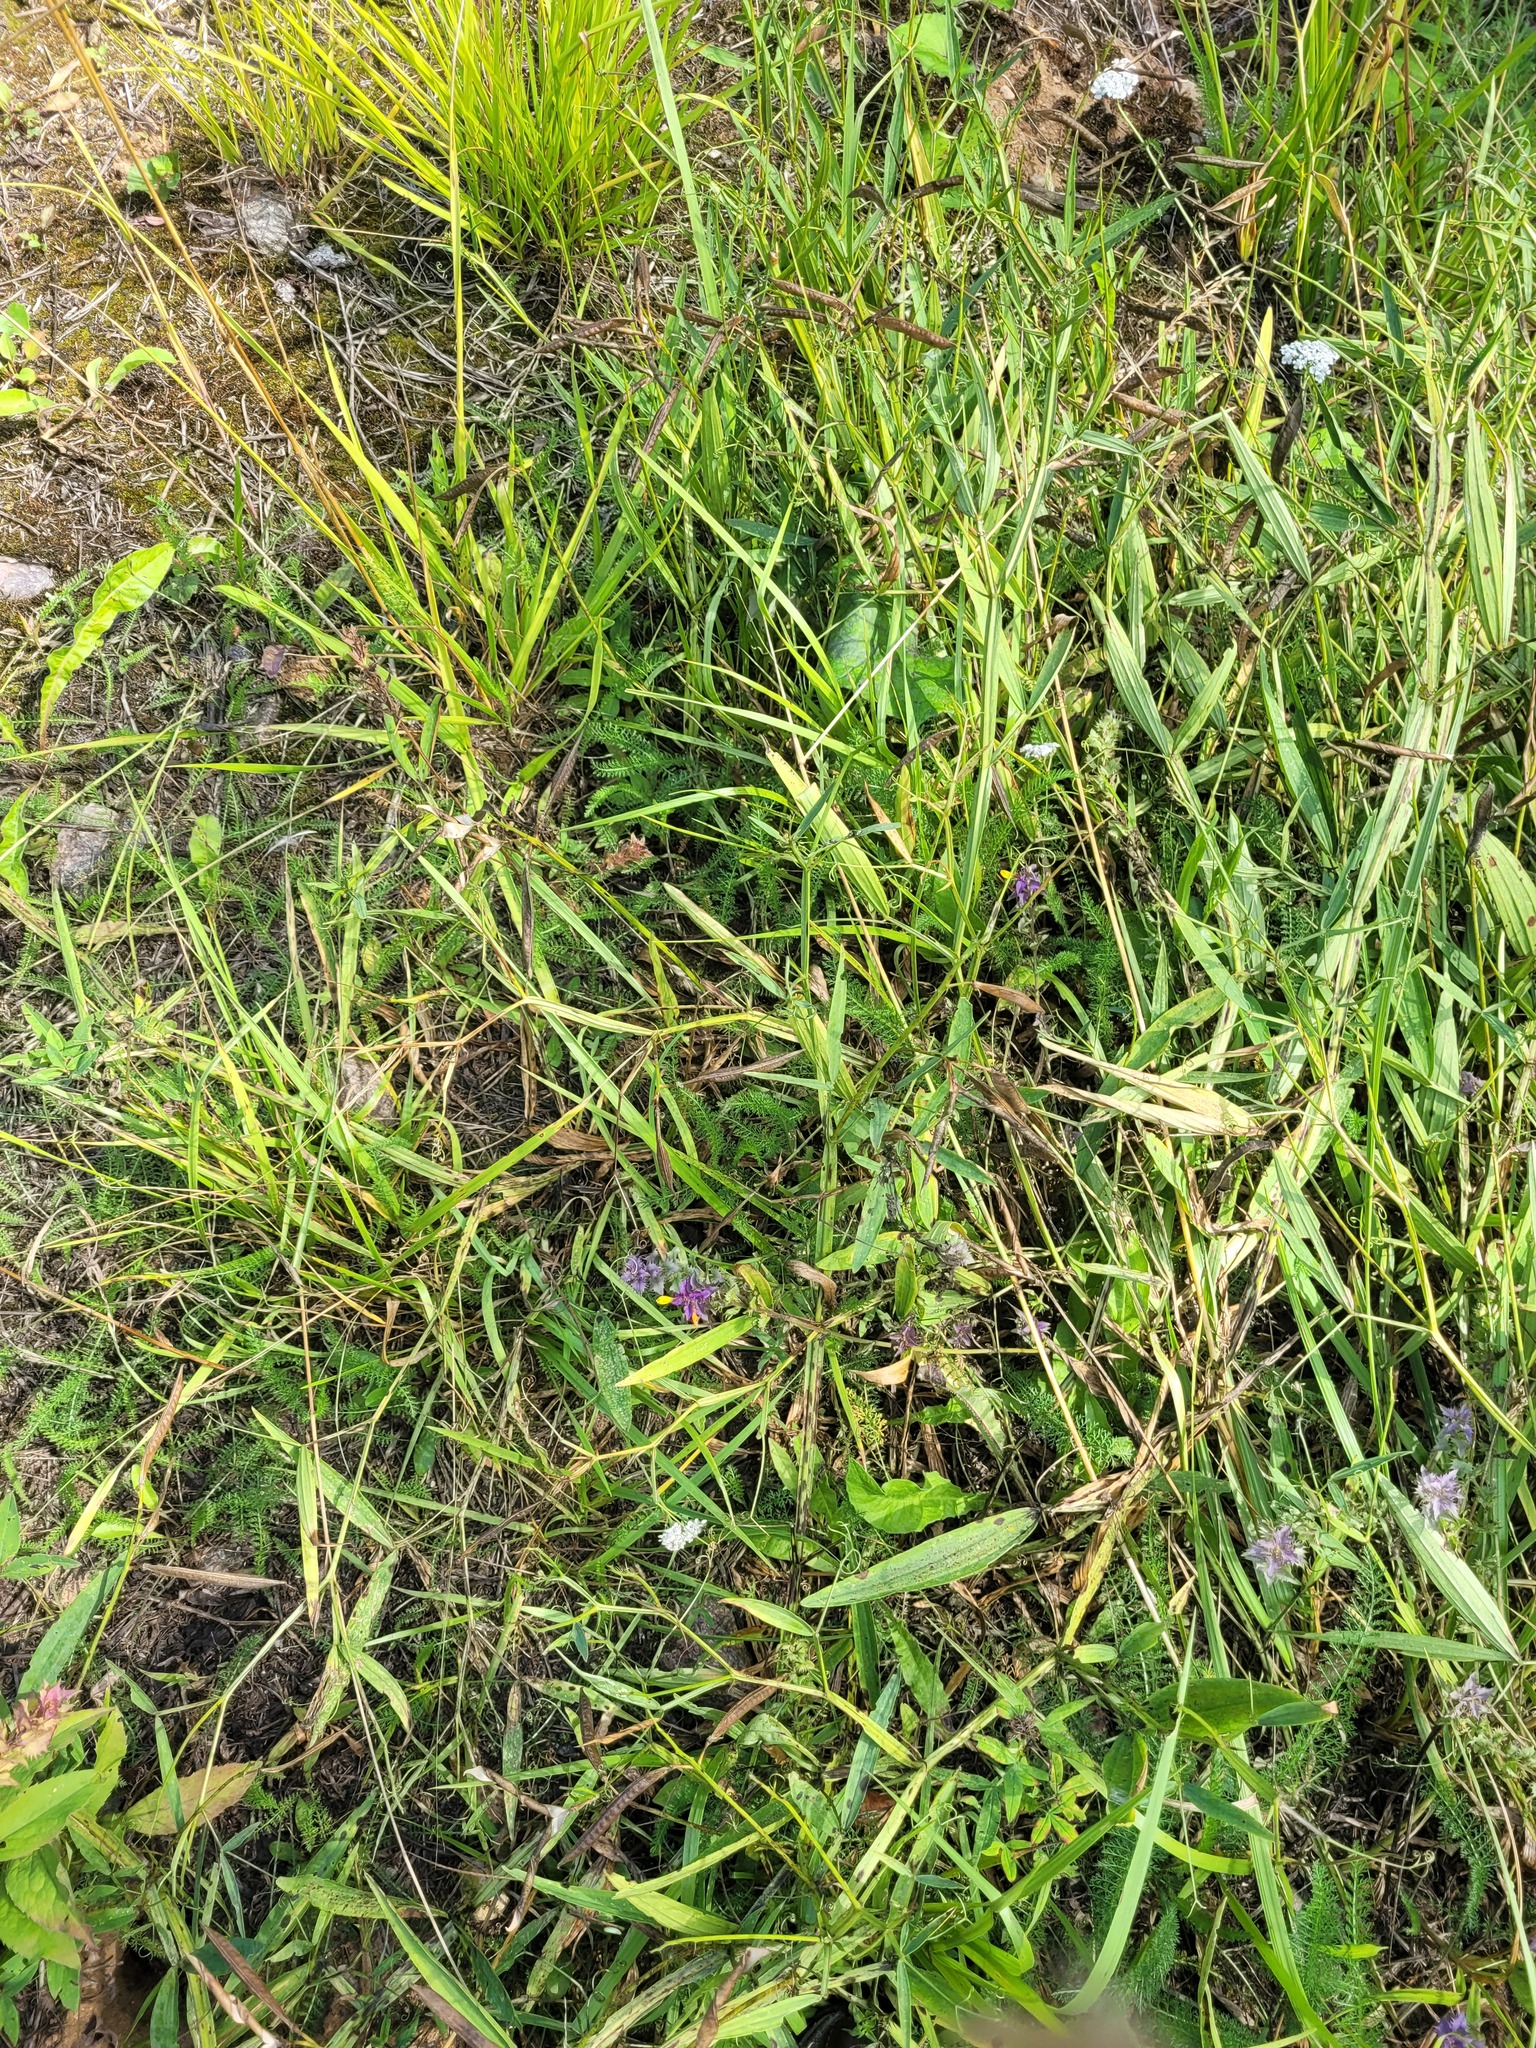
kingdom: Plantae
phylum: Tracheophyta
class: Magnoliopsida
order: Fabales
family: Fabaceae
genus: Lathyrus
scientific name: Lathyrus sylvestris
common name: Flat pea
